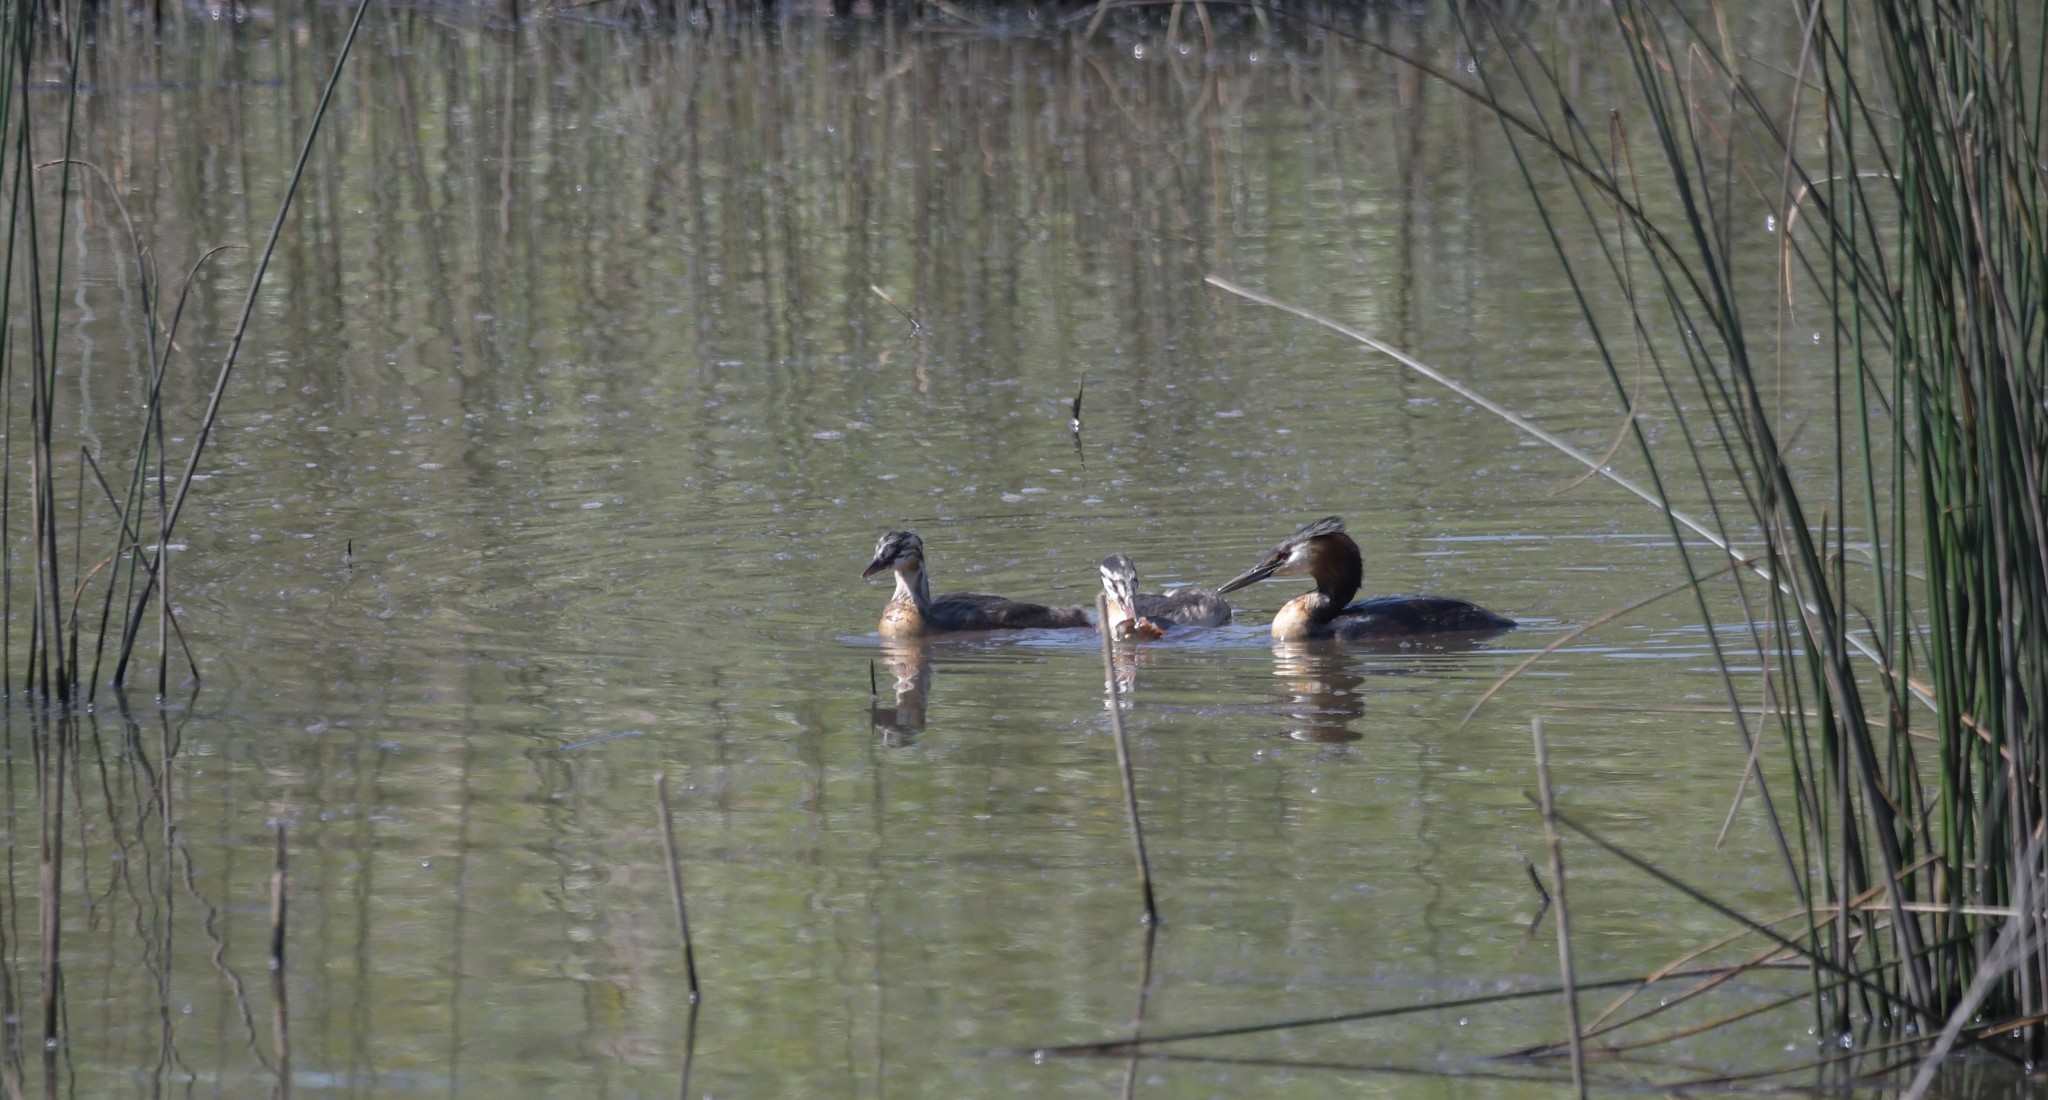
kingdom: Animalia
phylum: Chordata
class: Aves
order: Podicipediformes
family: Podicipedidae
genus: Podiceps
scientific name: Podiceps cristatus
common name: Great crested grebe
